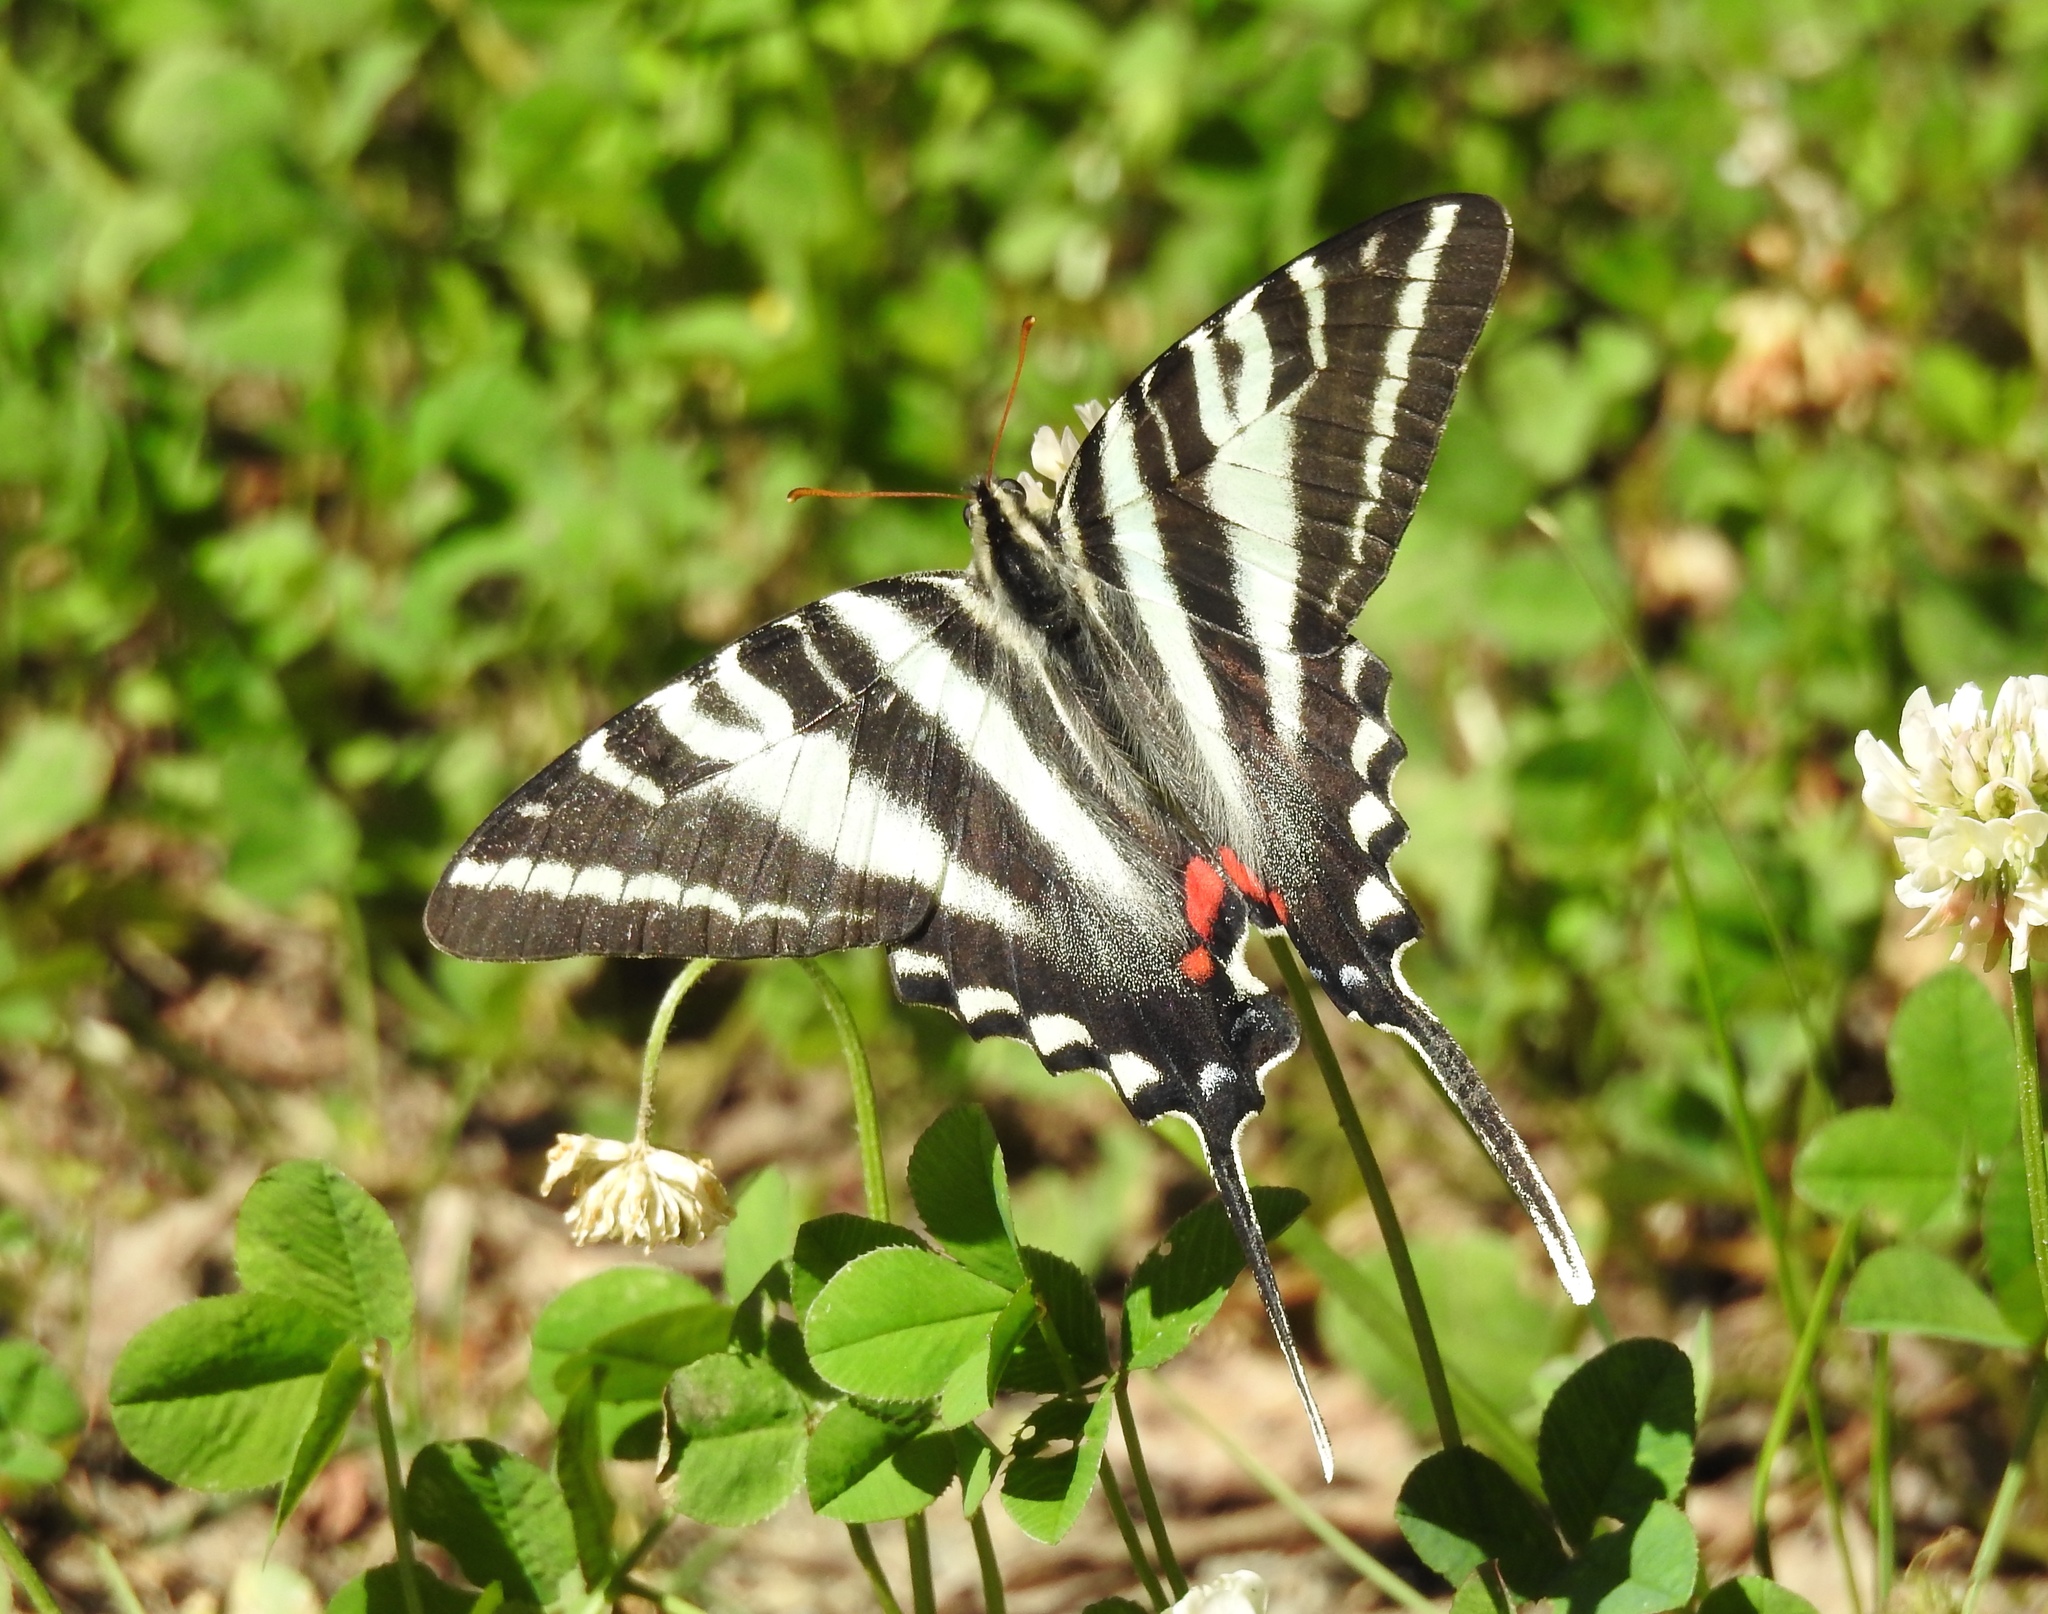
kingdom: Animalia
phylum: Arthropoda
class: Insecta
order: Lepidoptera
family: Papilionidae
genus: Protographium
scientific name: Protographium marcellus
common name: Zebra swallowtail
